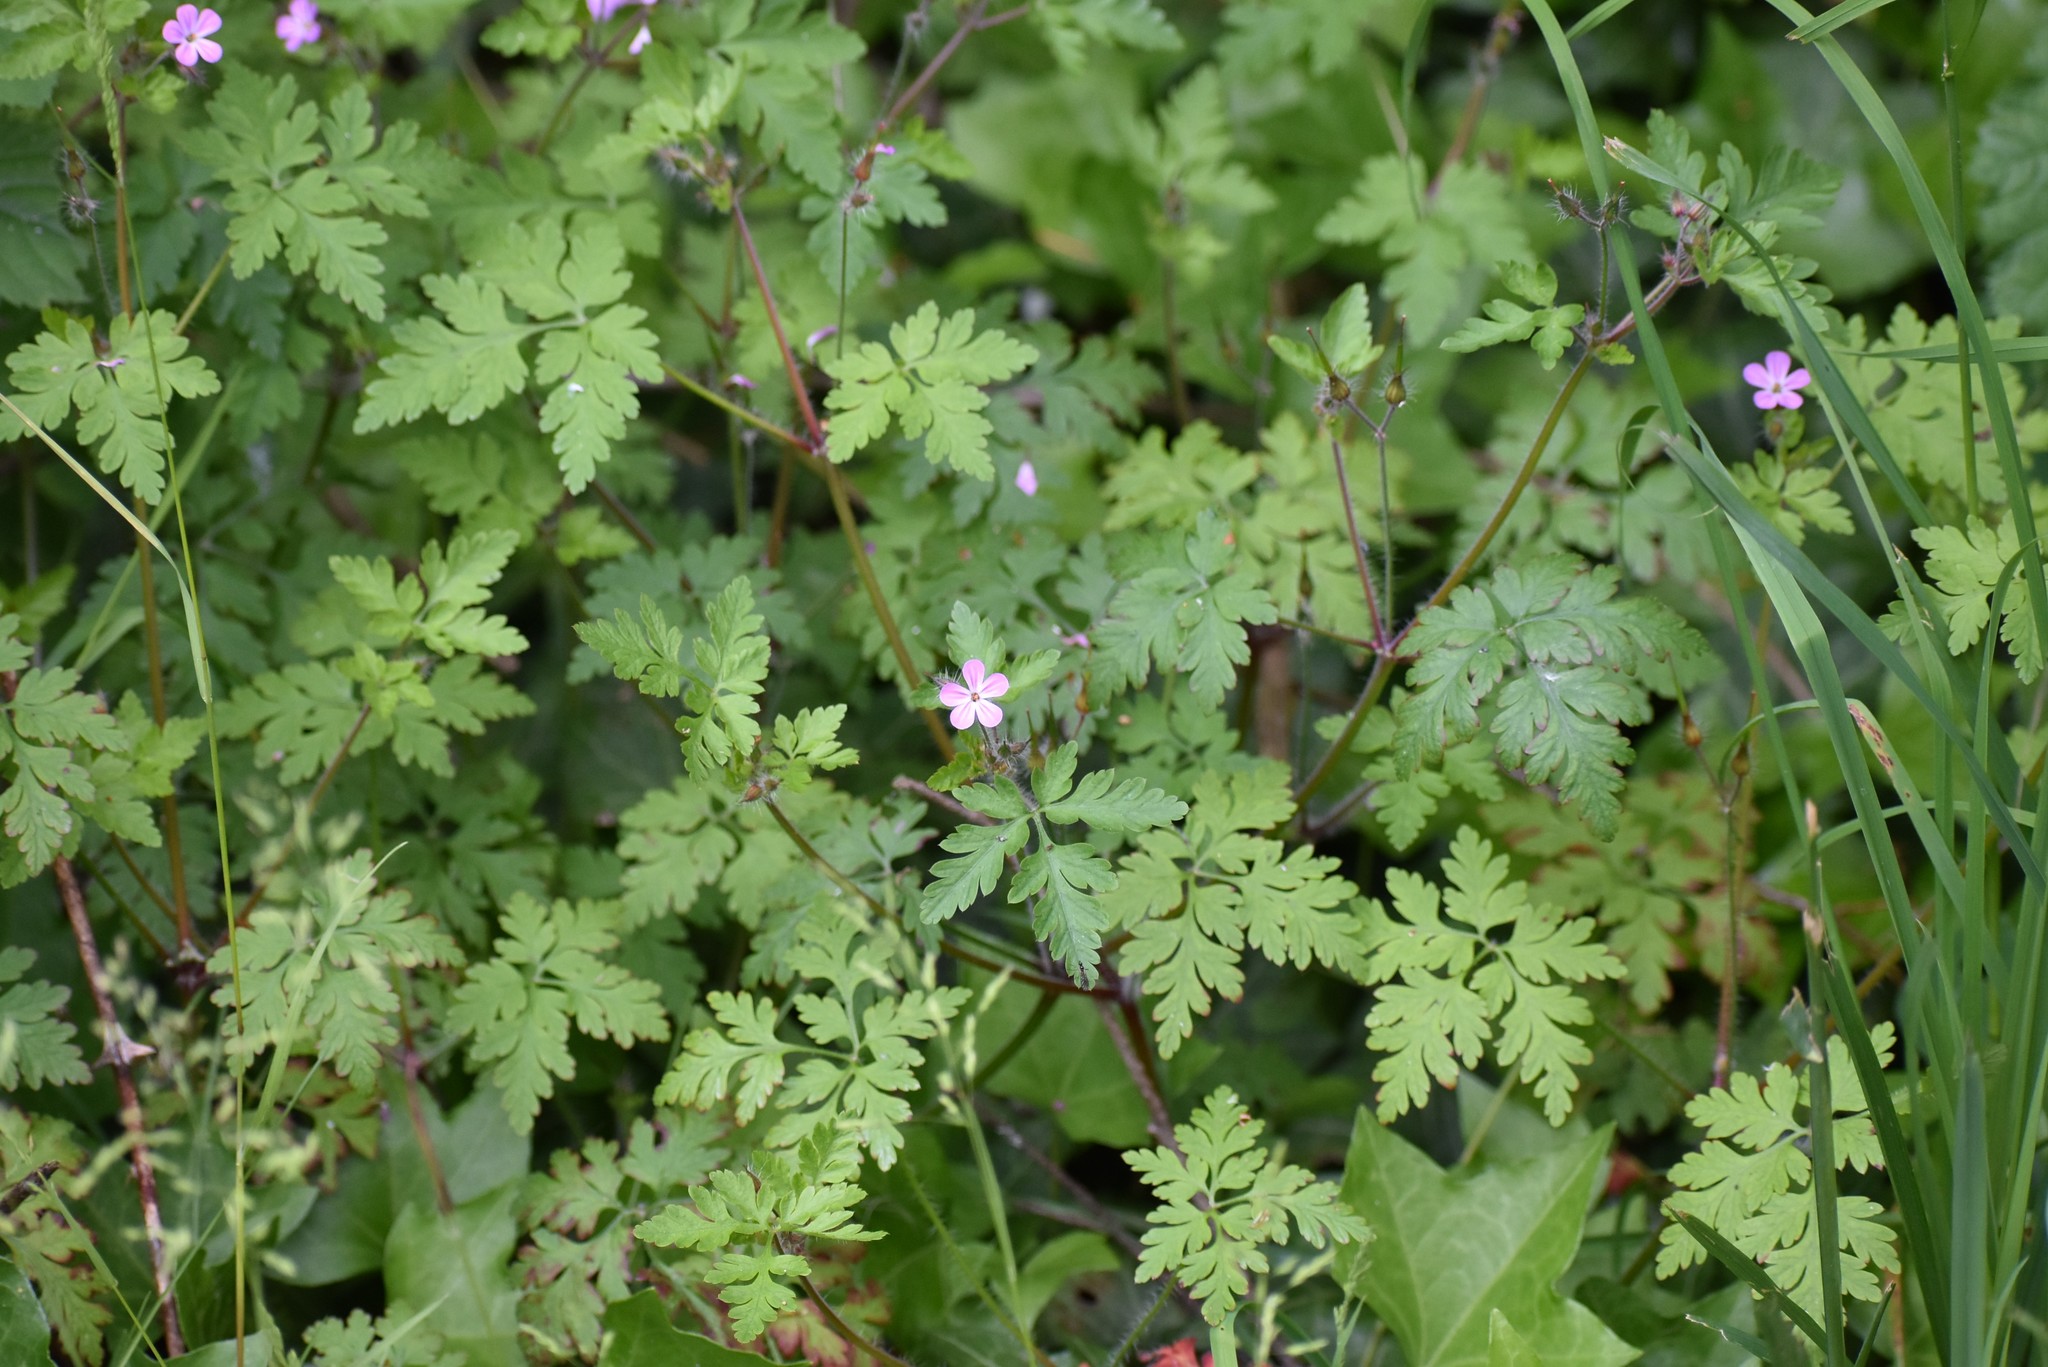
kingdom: Plantae
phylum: Tracheophyta
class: Magnoliopsida
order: Geraniales
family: Geraniaceae
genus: Geranium
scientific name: Geranium robertianum
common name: Herb-robert
